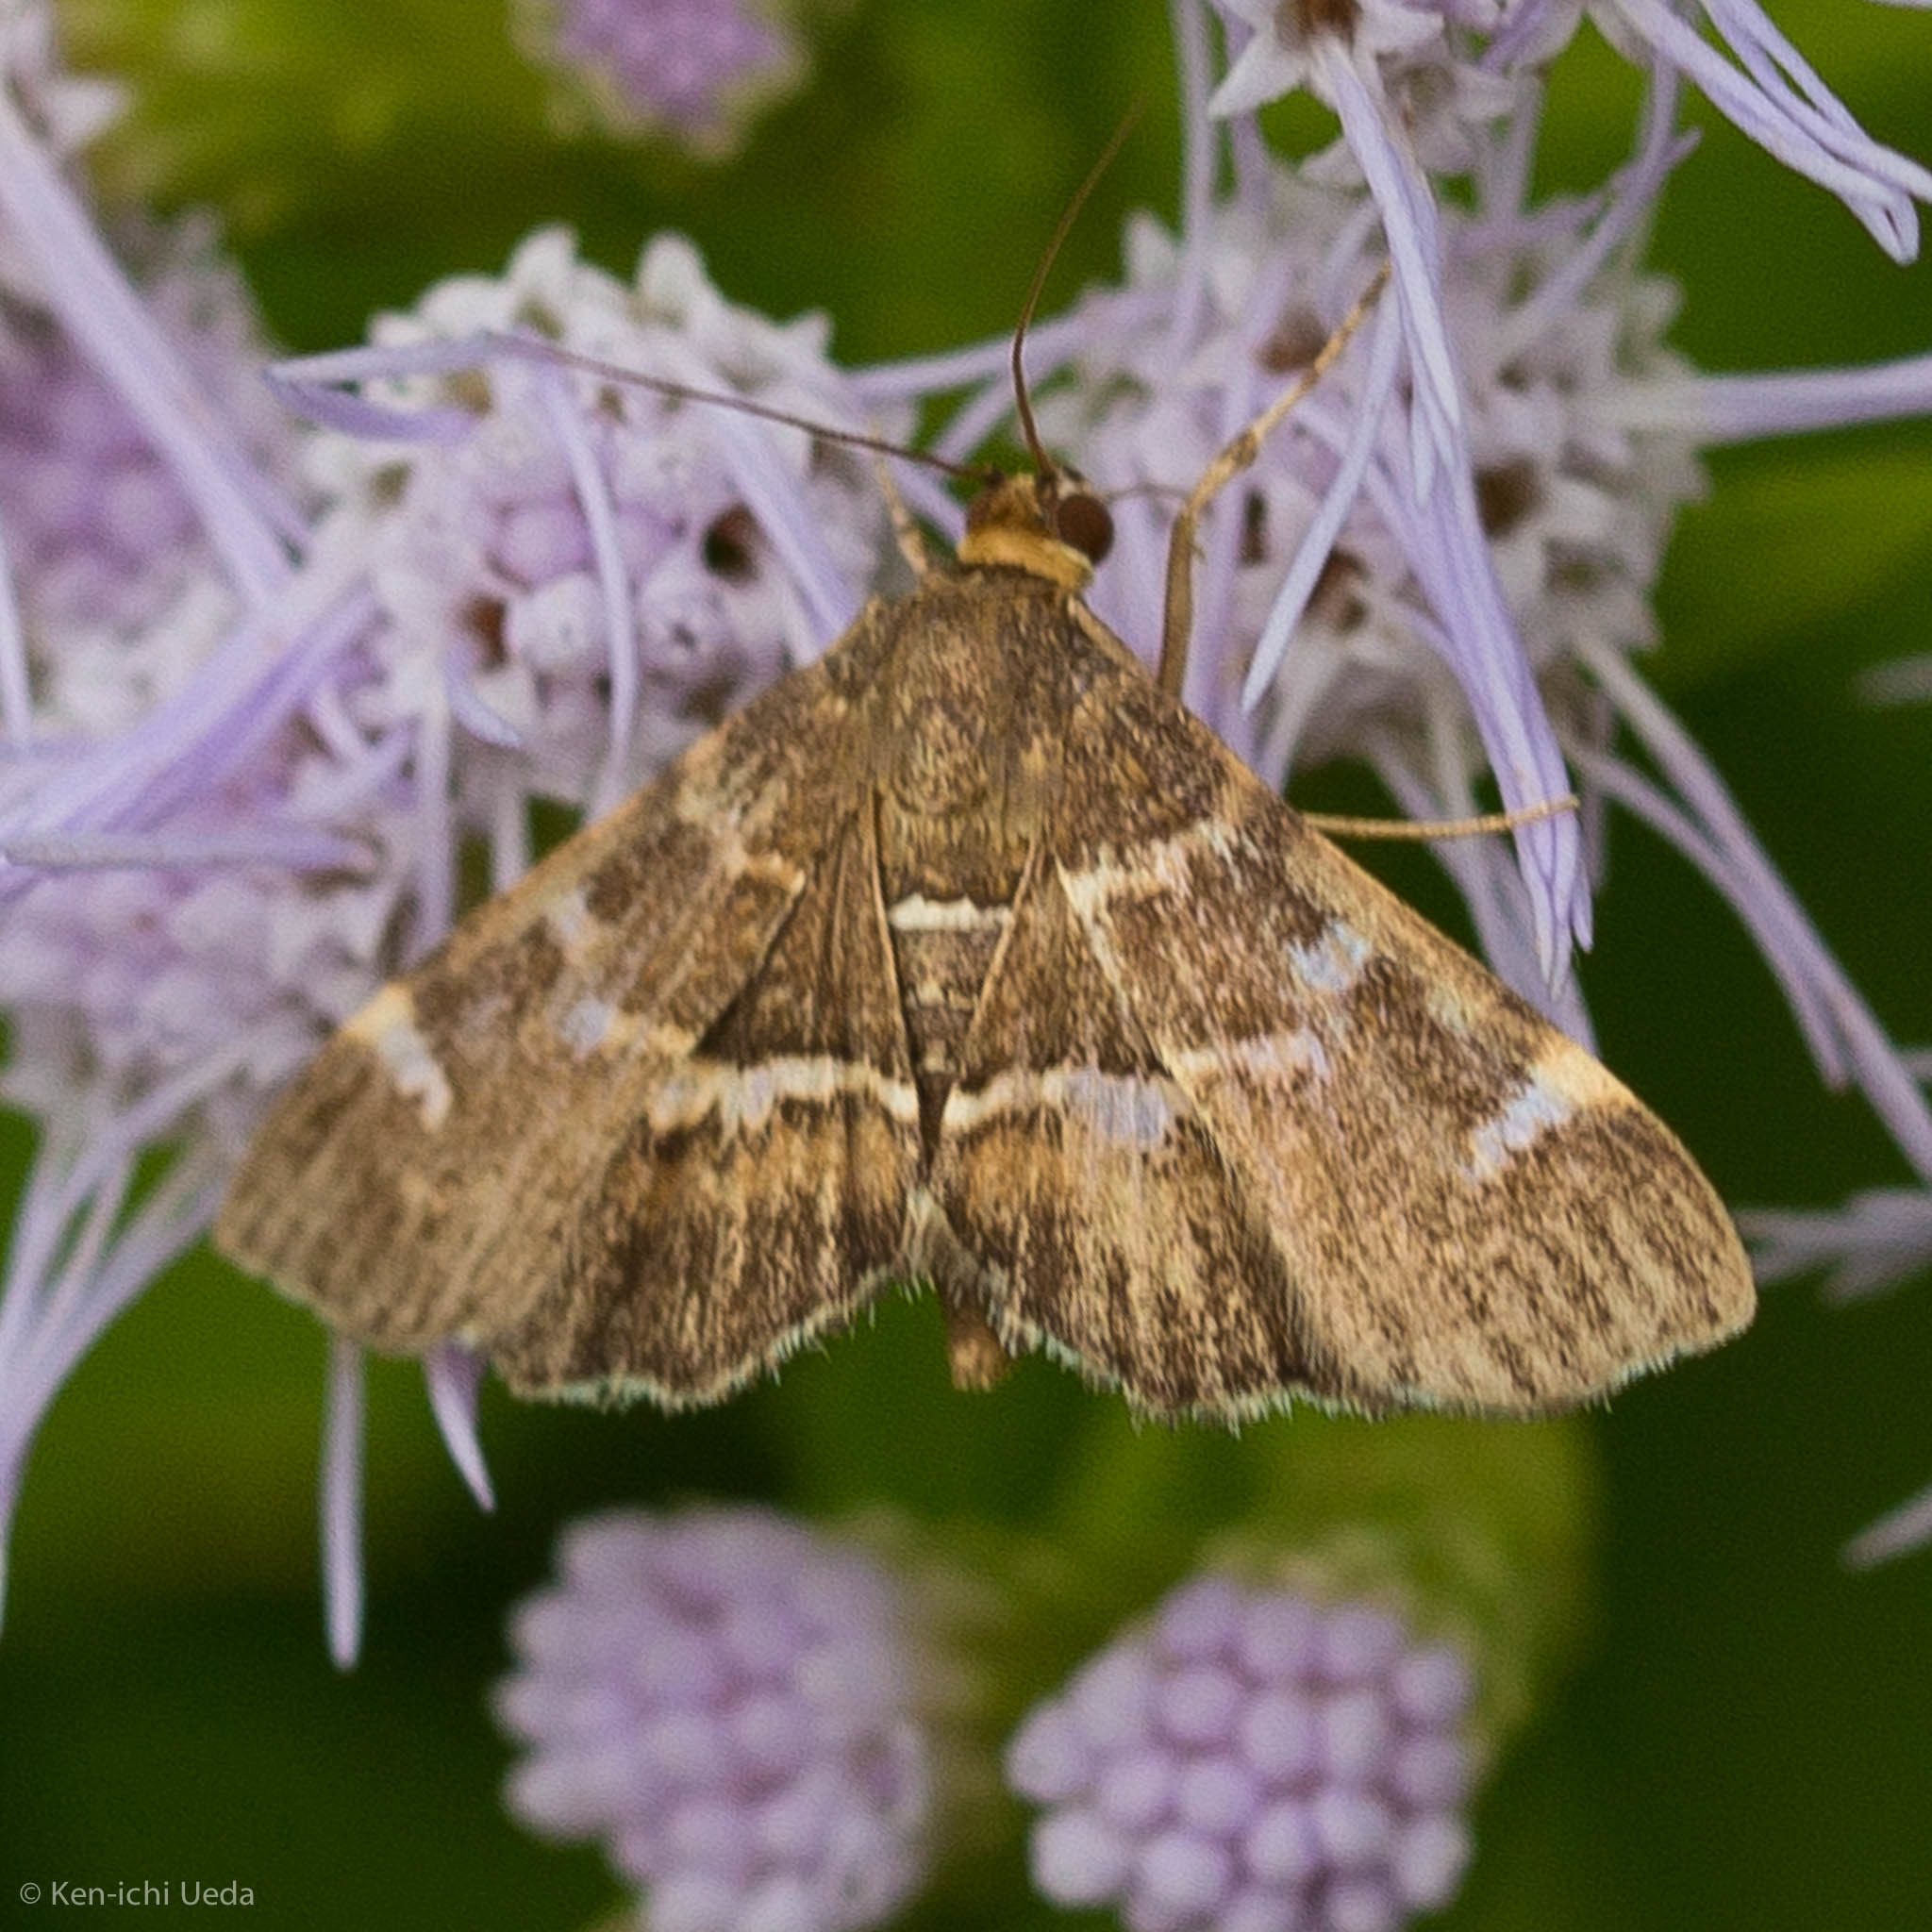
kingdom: Animalia
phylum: Arthropoda
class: Insecta
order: Lepidoptera
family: Crambidae
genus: Hymenia
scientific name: Hymenia perspectalis
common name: Spotted beet webworm
